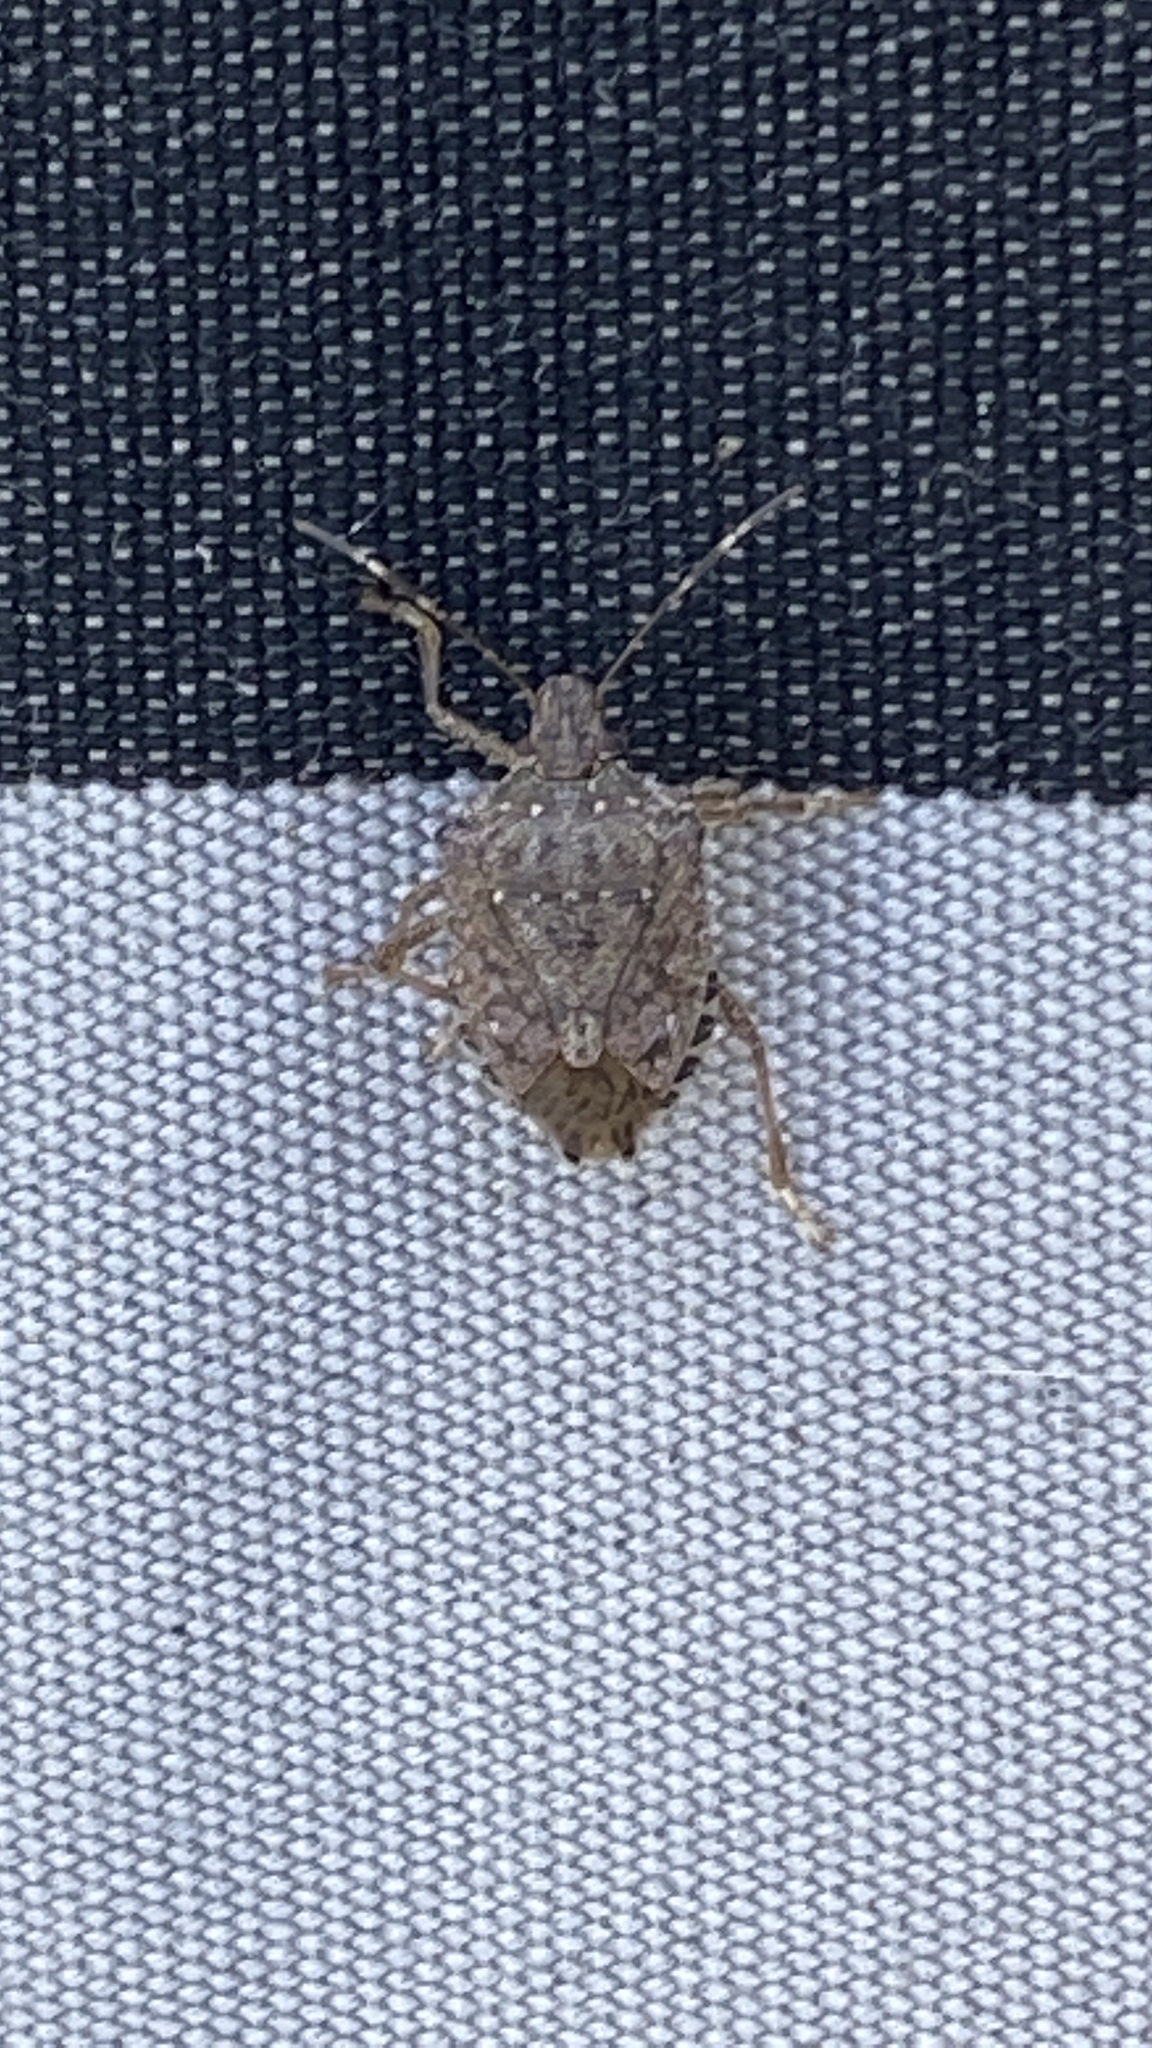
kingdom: Animalia
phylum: Arthropoda
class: Insecta
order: Hemiptera
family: Pentatomidae
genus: Halyomorpha
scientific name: Halyomorpha halys
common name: Brown marmorated stink bug
